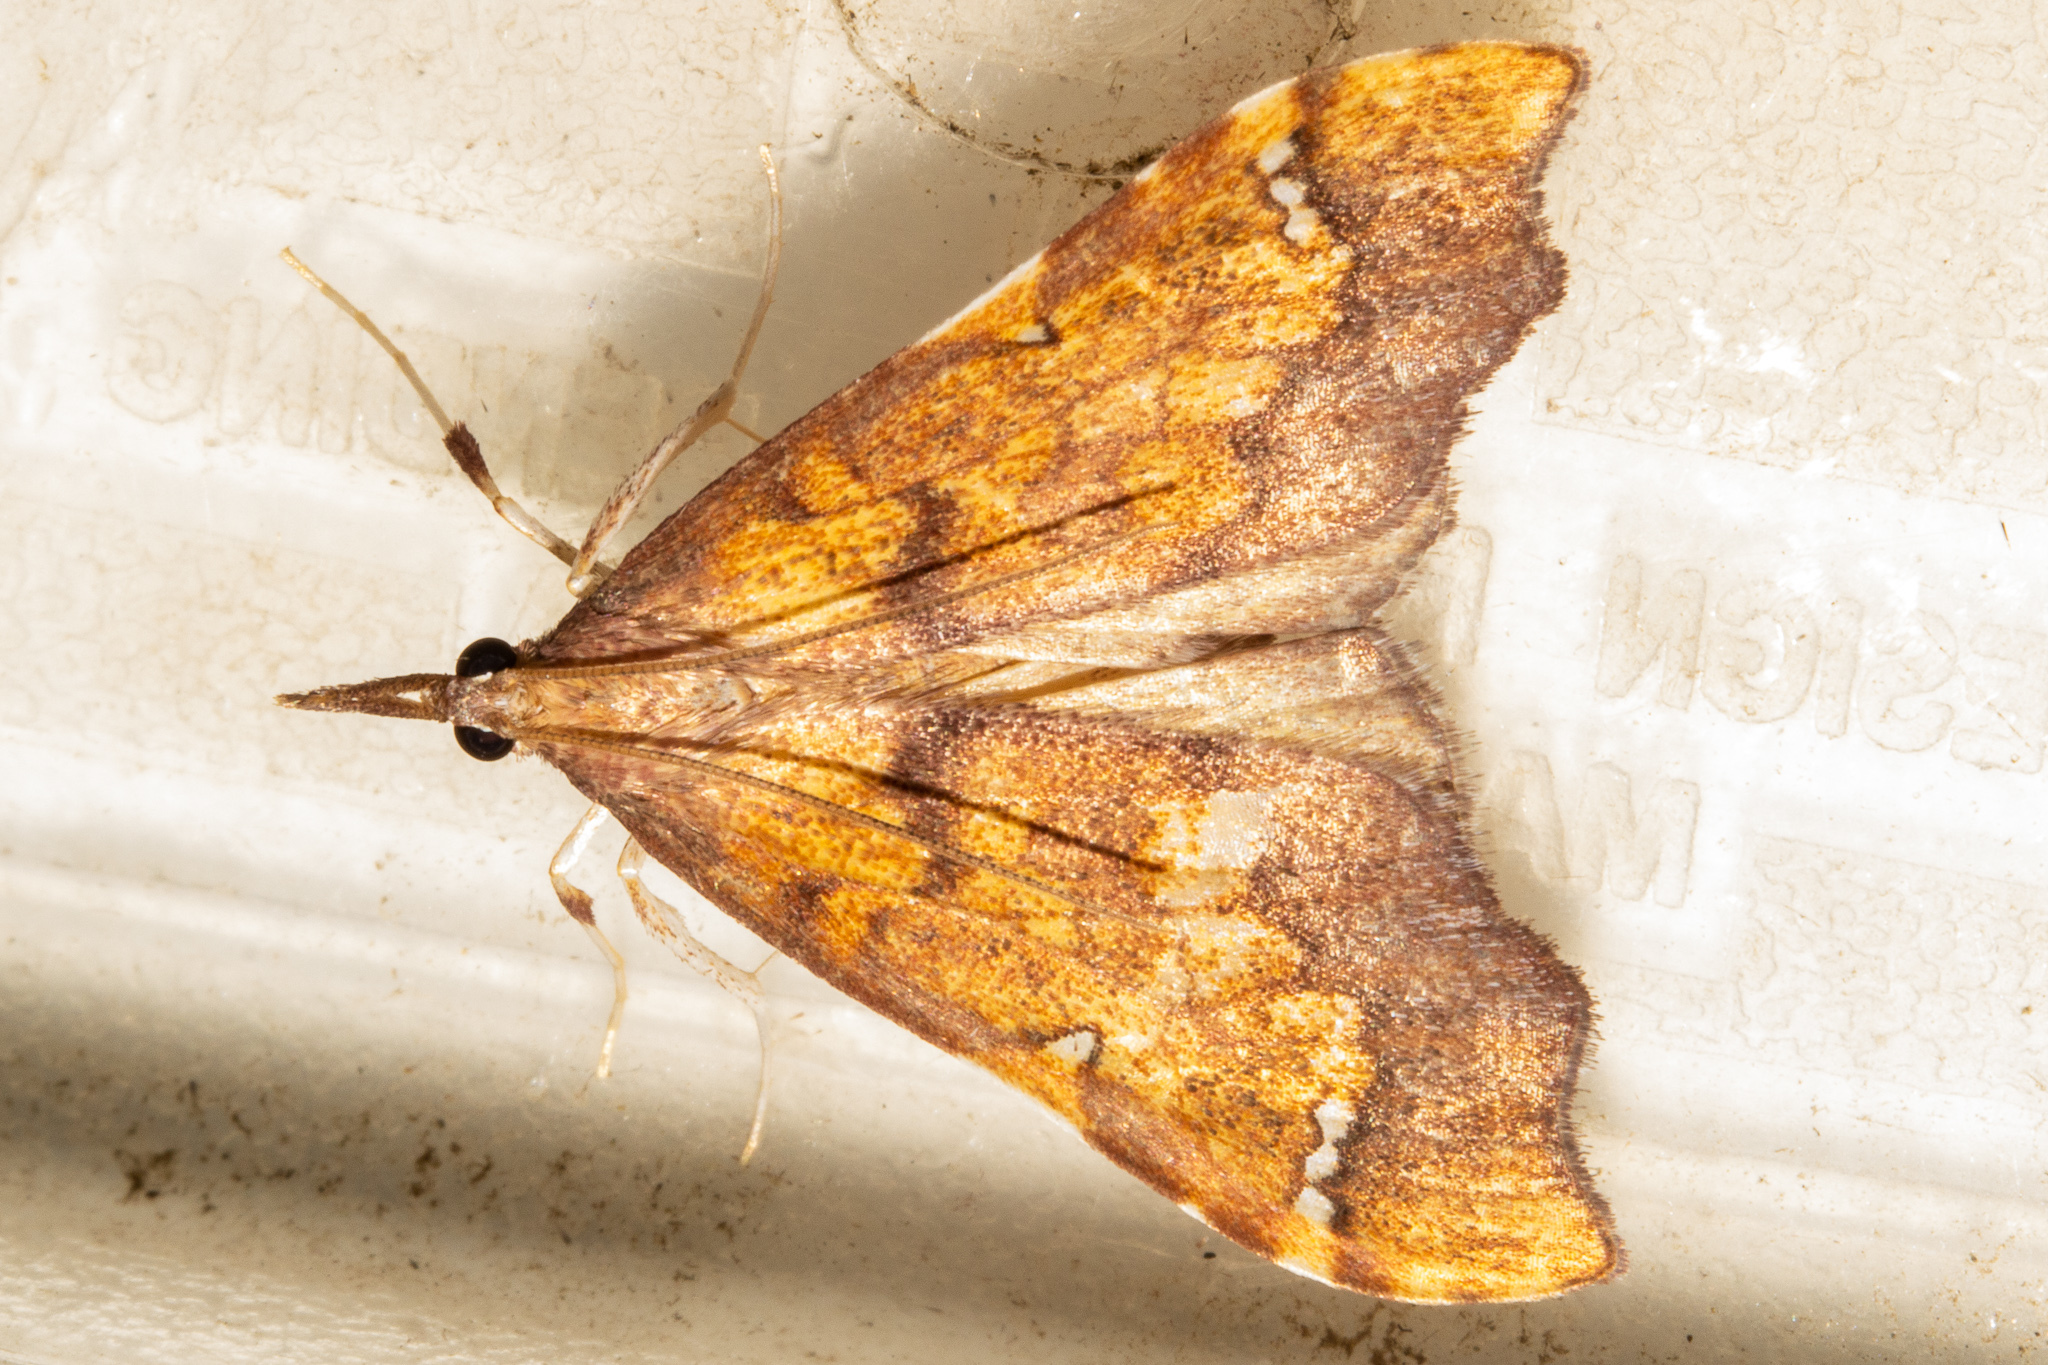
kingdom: Animalia
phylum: Arthropoda
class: Insecta
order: Lepidoptera
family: Crambidae
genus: Deana
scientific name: Deana hybreasalis
